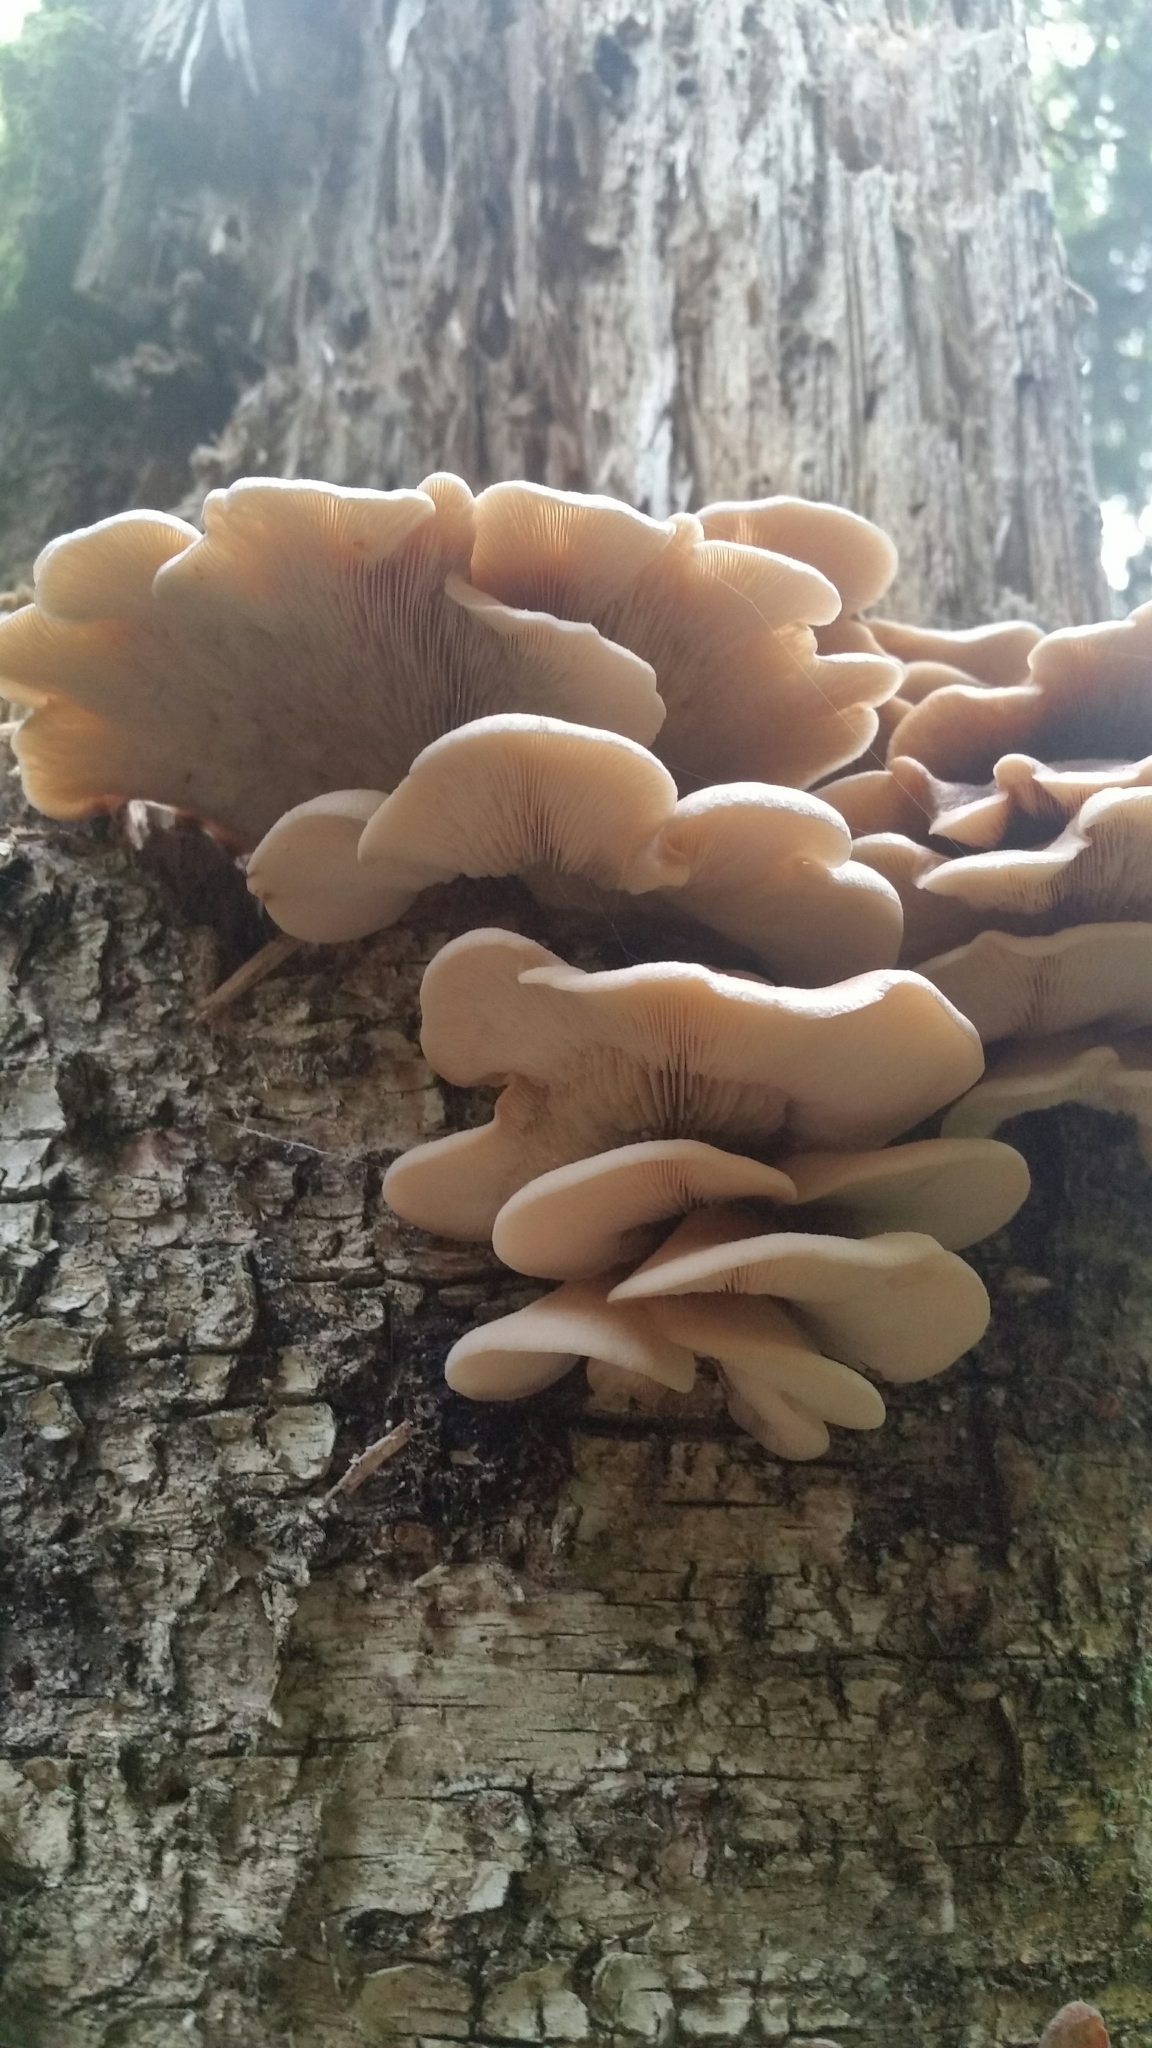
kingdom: Fungi
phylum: Basidiomycota
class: Agaricomycetes
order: Russulales
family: Auriscalpiaceae
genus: Lentinellus
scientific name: Lentinellus ursinus
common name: Bear lentinus
